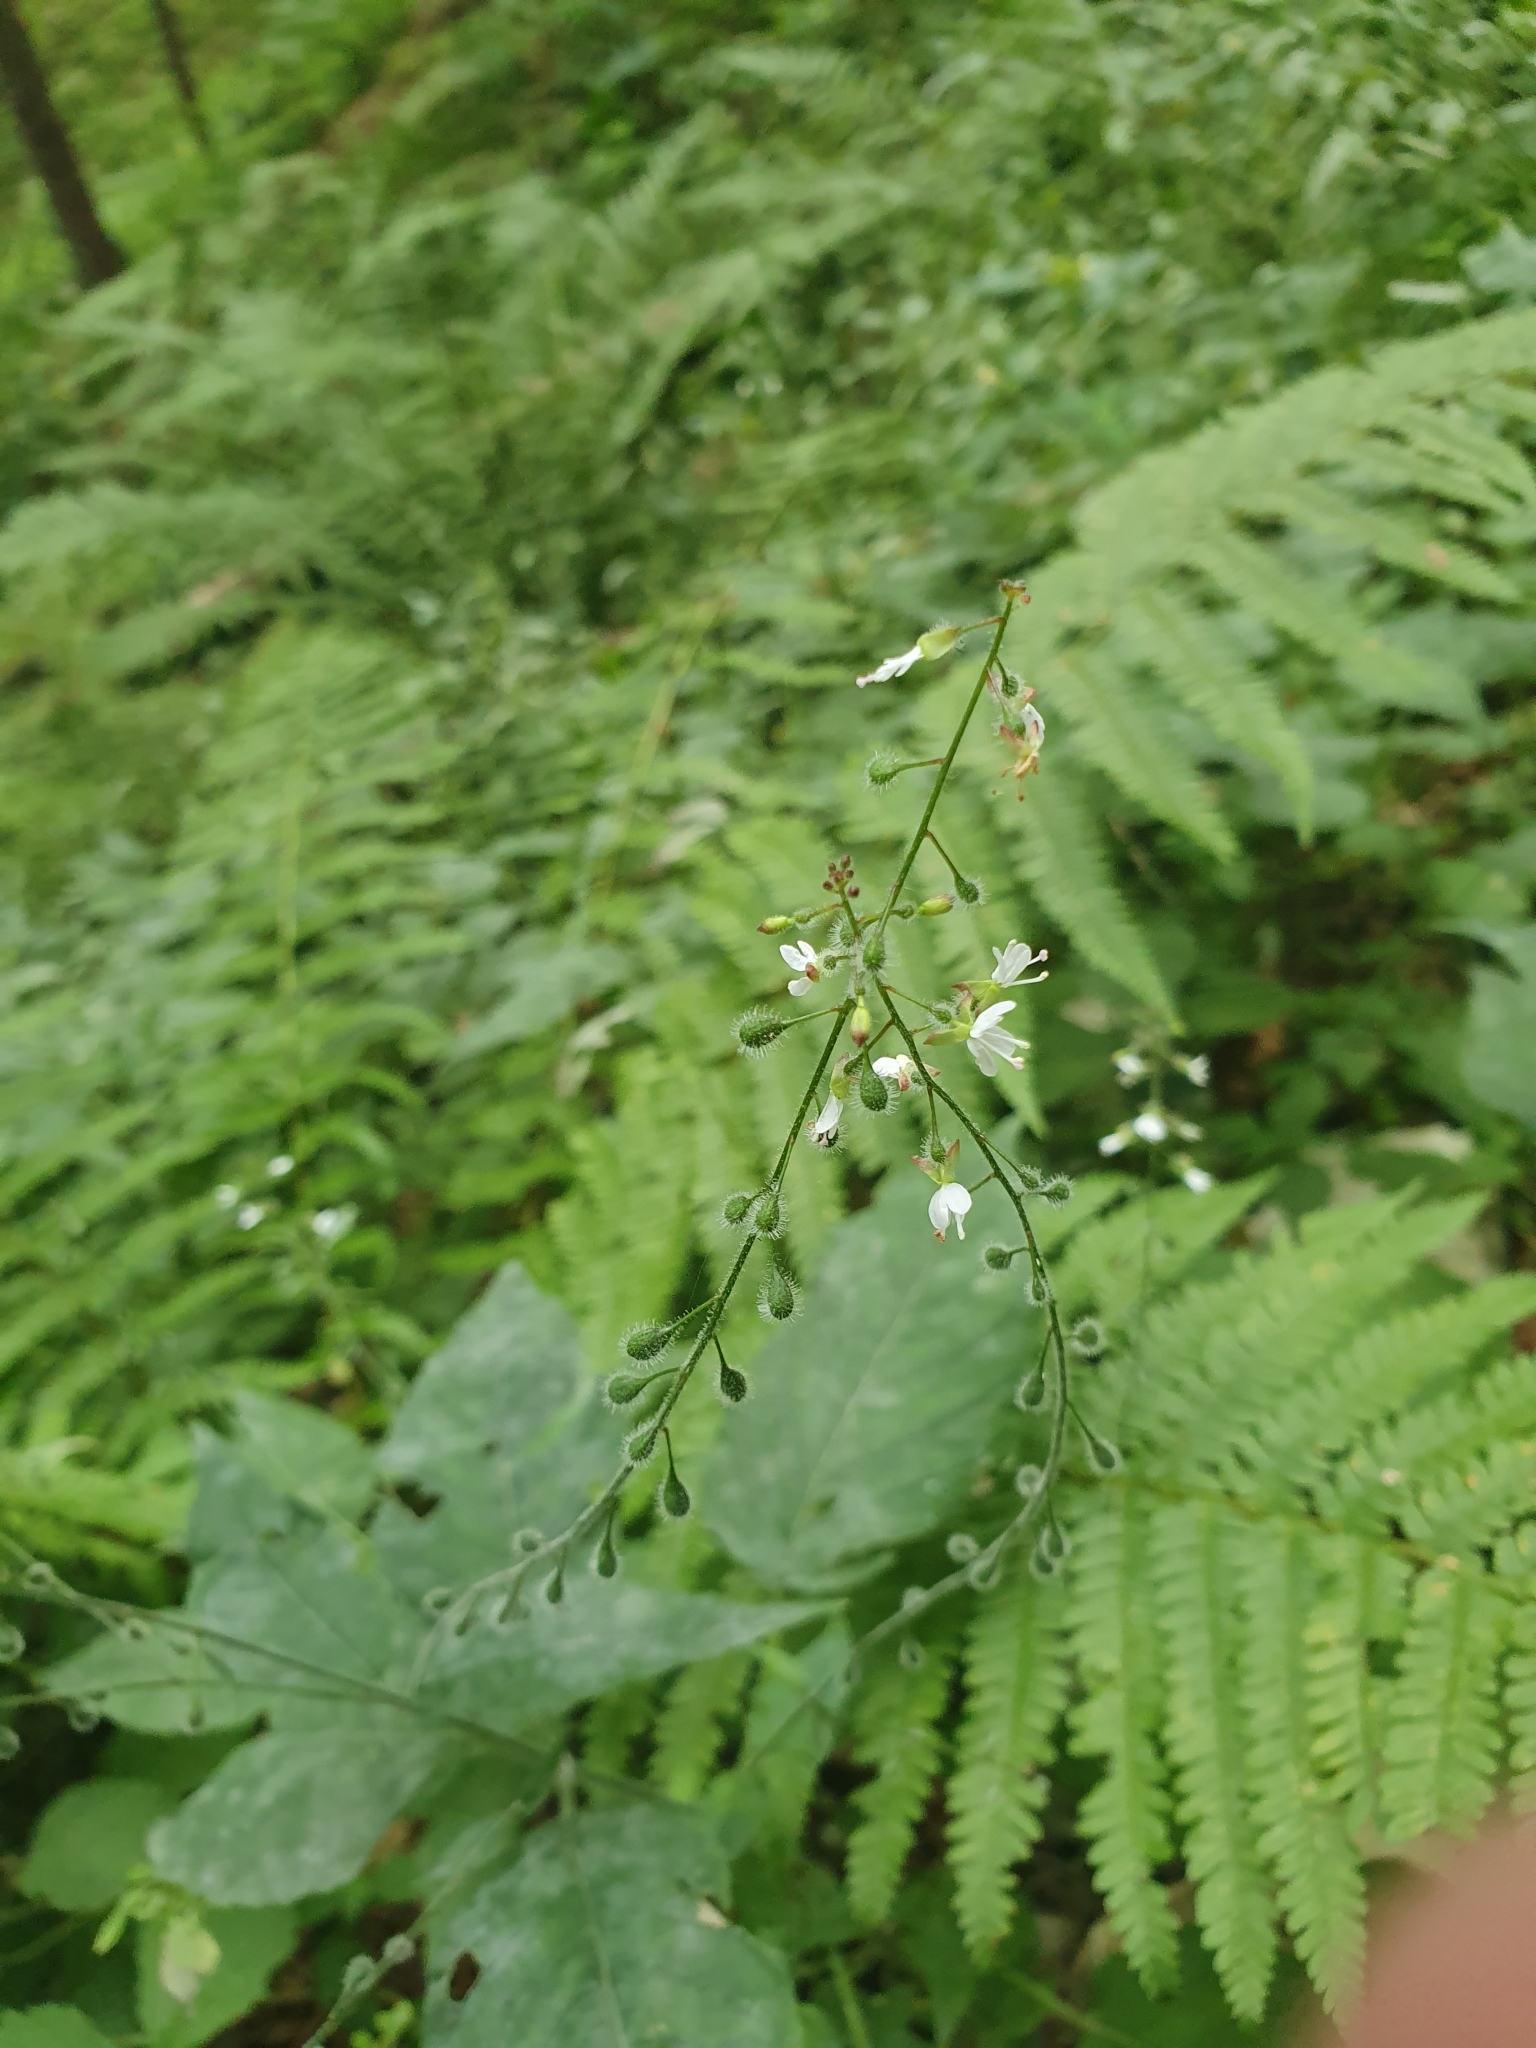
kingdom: Plantae
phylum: Tracheophyta
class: Magnoliopsida
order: Myrtales
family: Onagraceae
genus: Circaea
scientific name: Circaea lutetiana
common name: Enchanter's-nightshade
